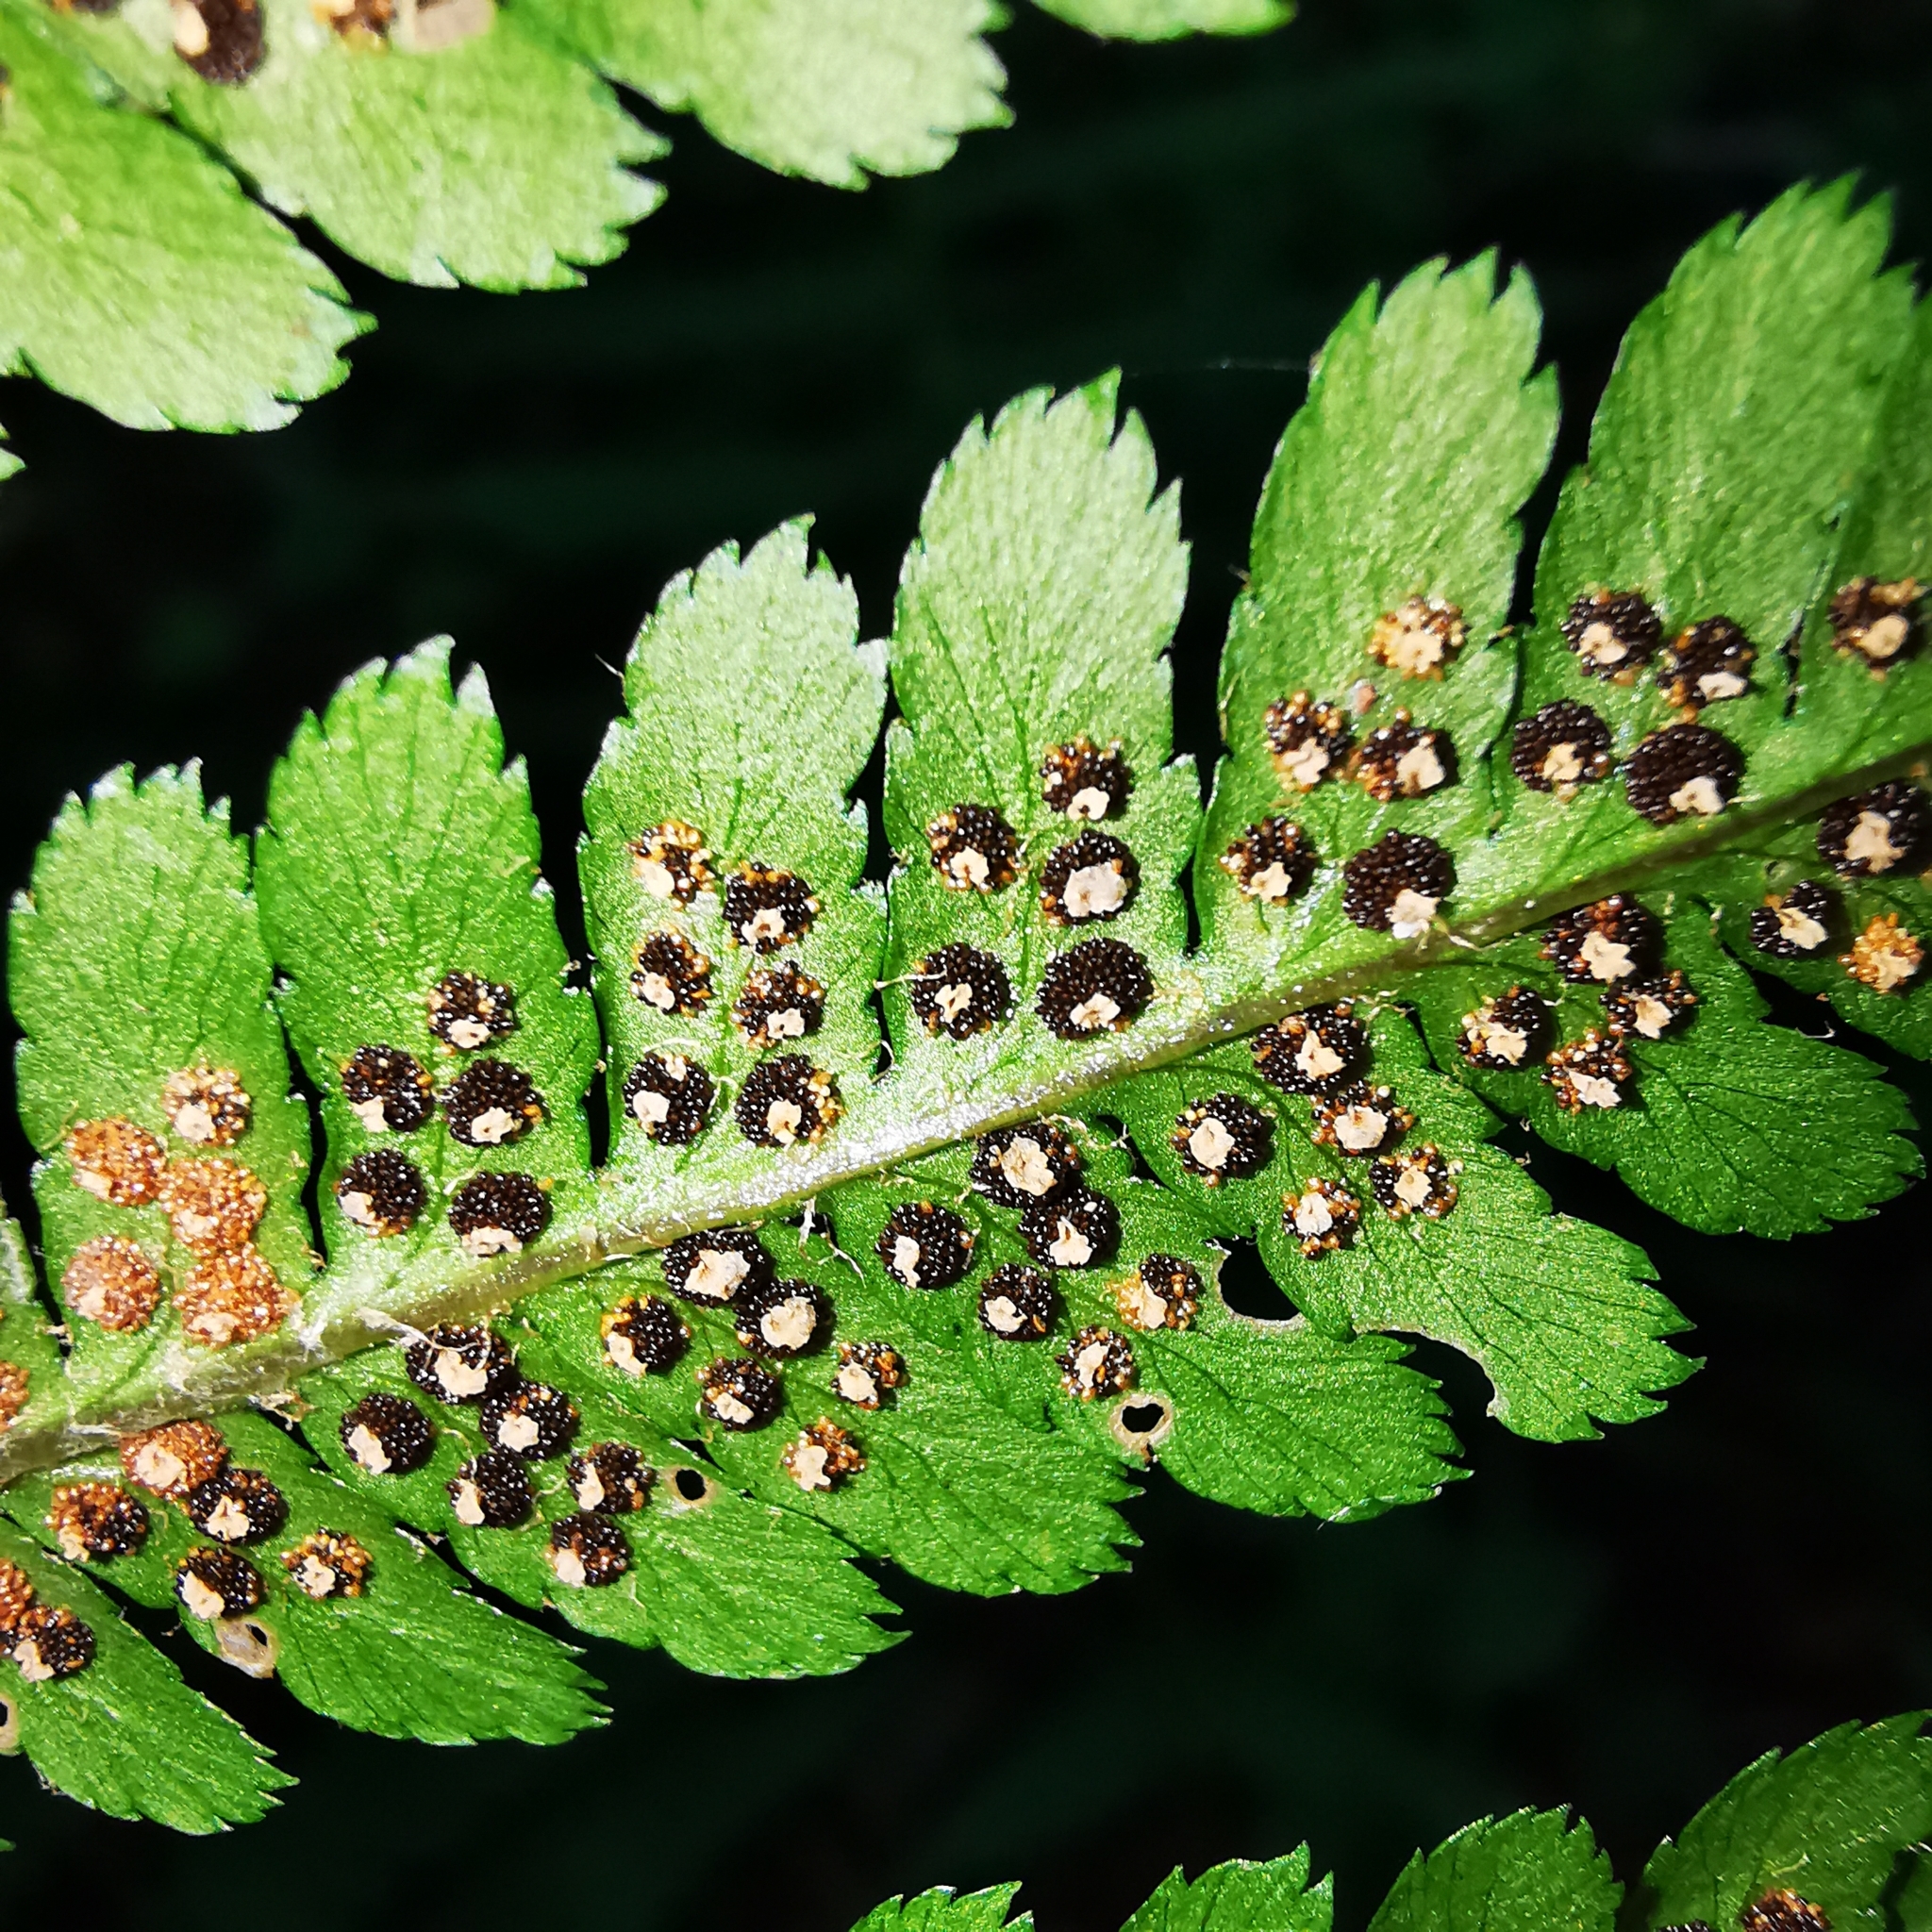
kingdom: Plantae
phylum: Tracheophyta
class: Polypodiopsida
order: Polypodiales
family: Dryopteridaceae
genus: Dryopteris
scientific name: Dryopteris filix-mas
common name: Male fern
